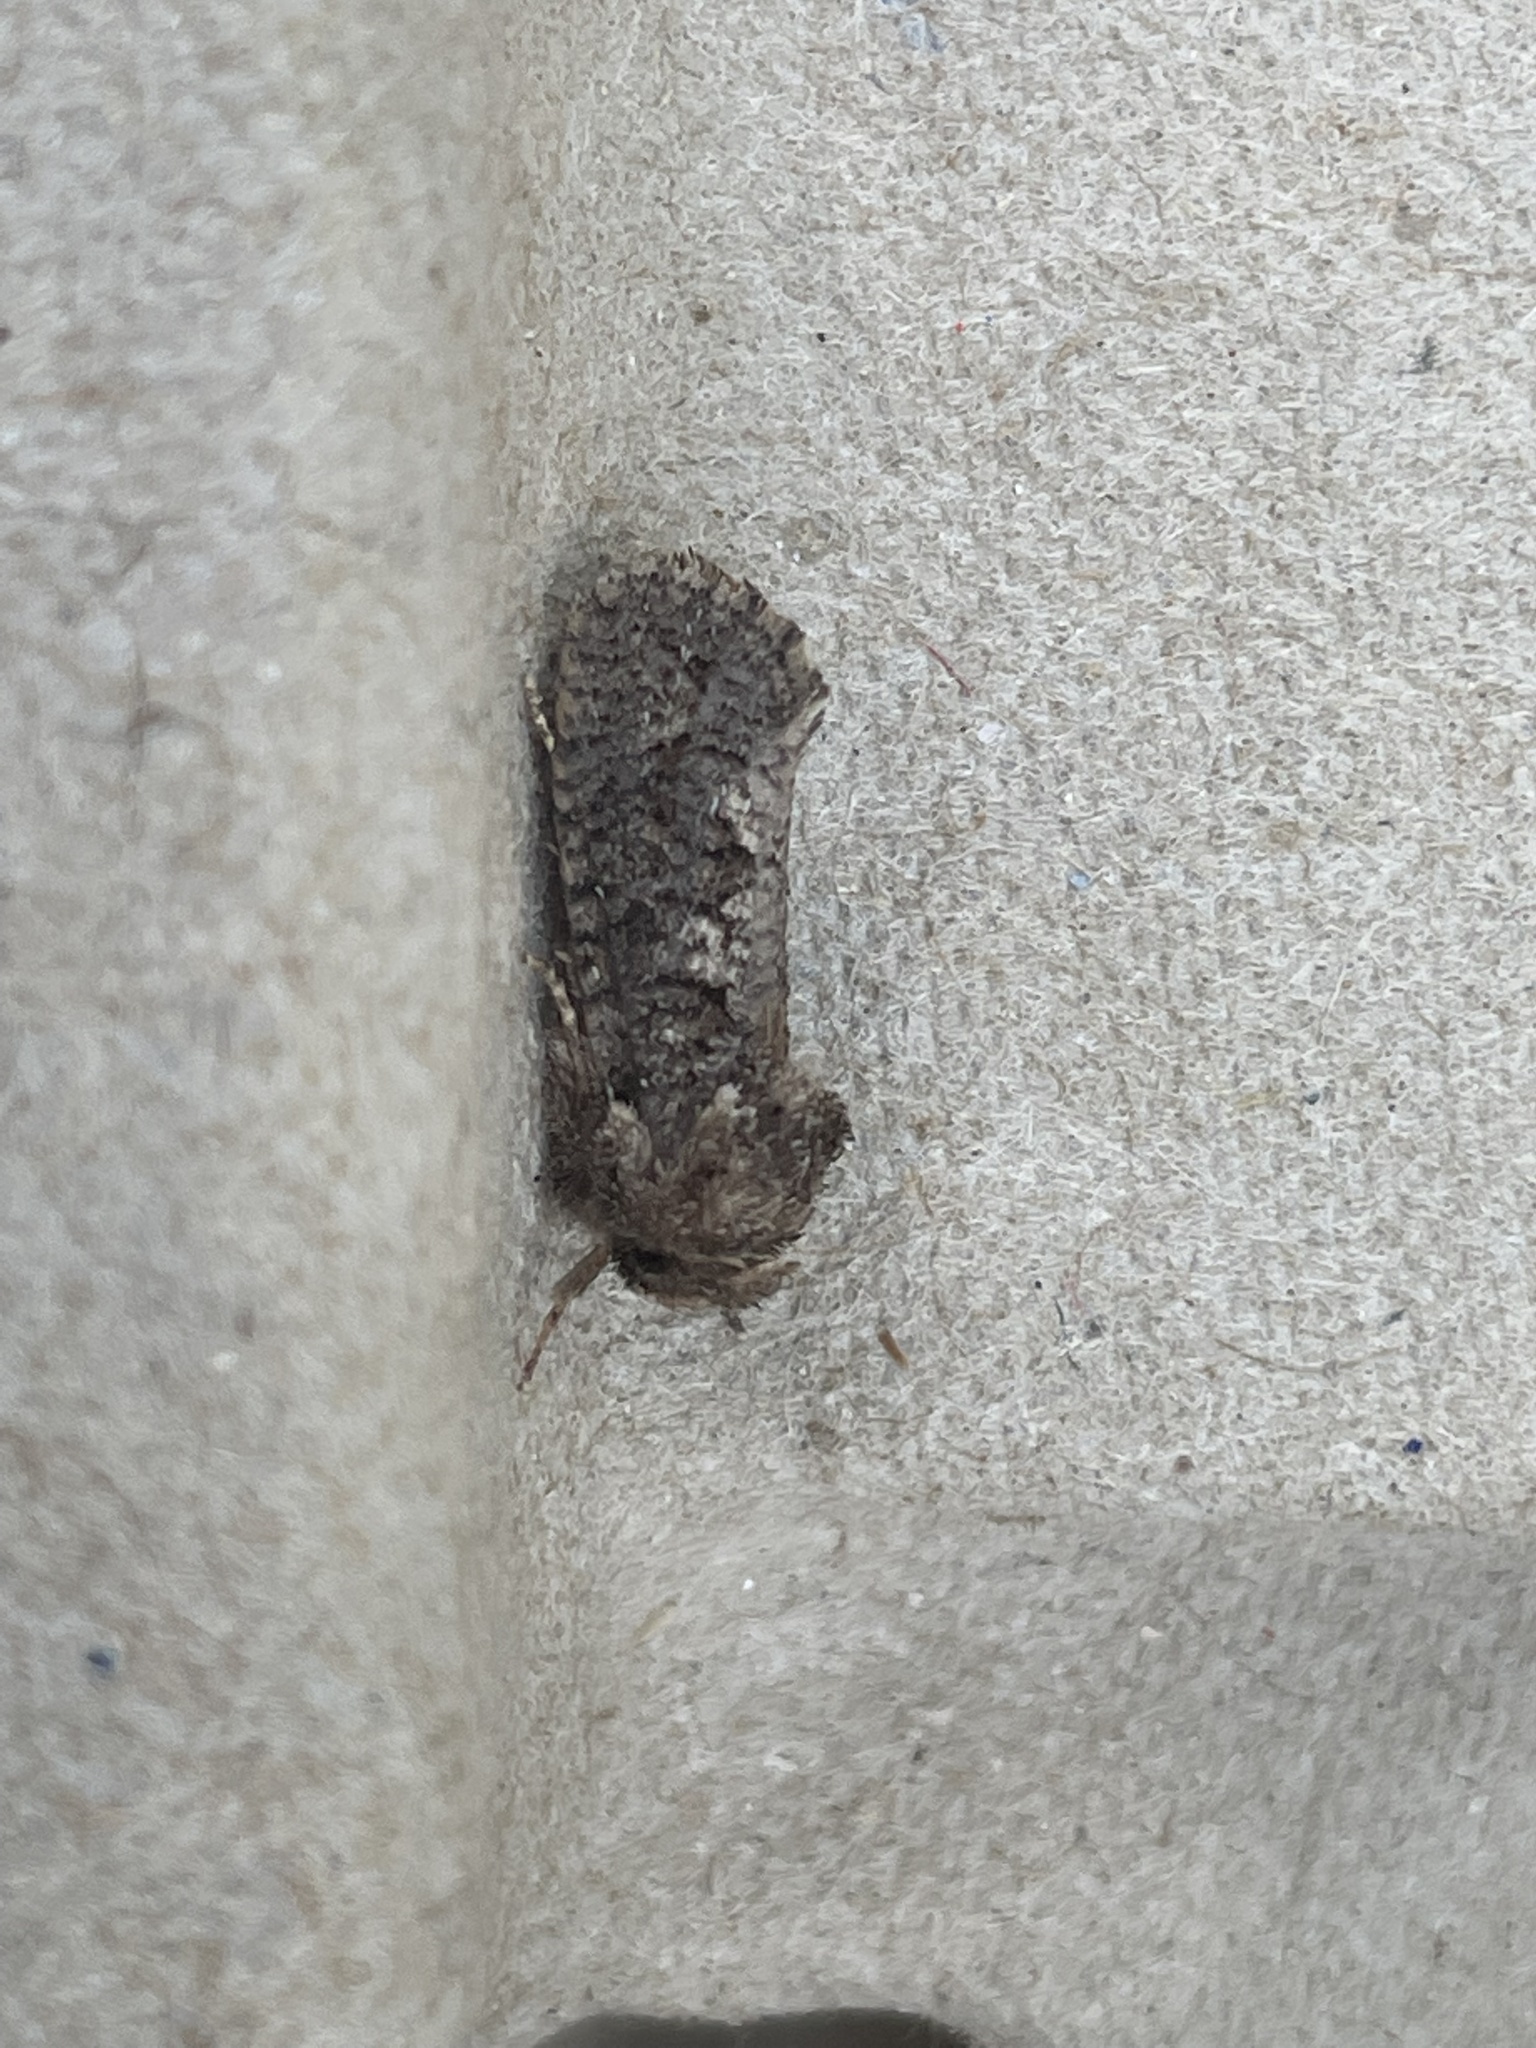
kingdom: Animalia
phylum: Arthropoda
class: Insecta
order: Lepidoptera
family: Tineidae
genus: Acrolophus
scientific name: Acrolophus arcanella
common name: Arcane grass tubeworm moth
